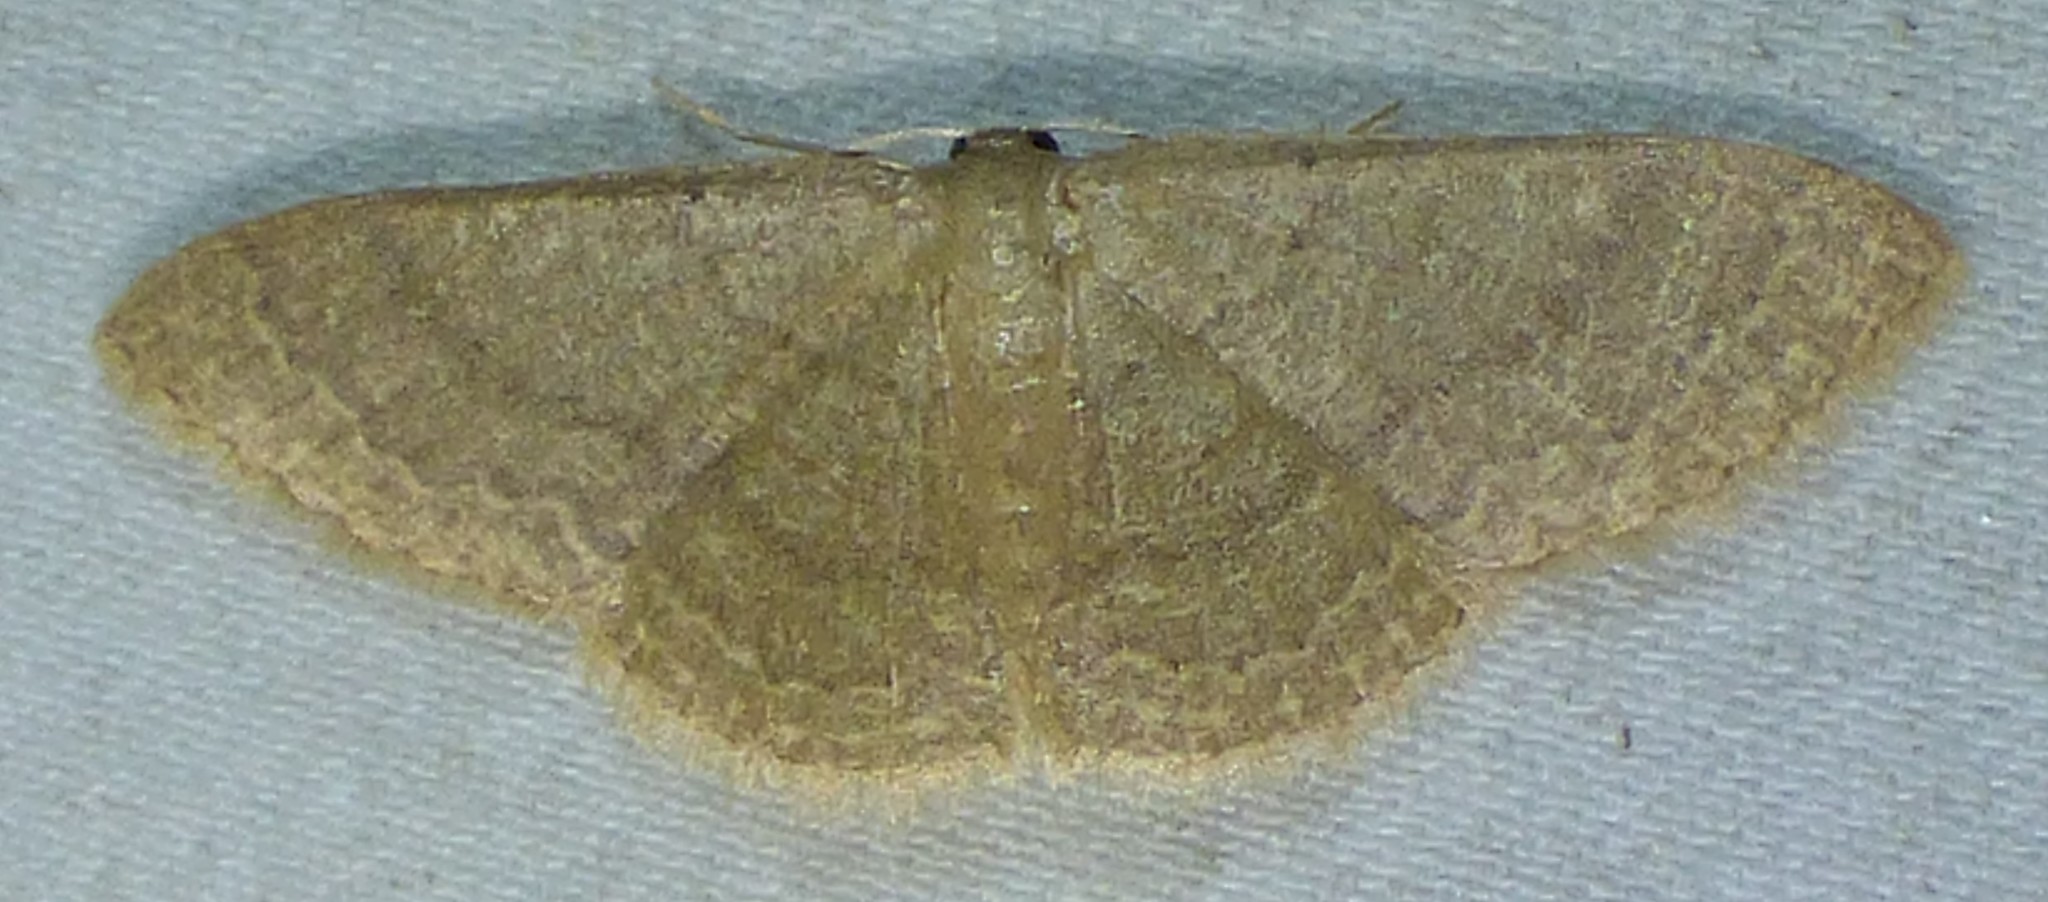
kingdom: Animalia
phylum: Arthropoda
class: Insecta
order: Lepidoptera
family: Geometridae
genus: Pleuroprucha
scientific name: Pleuroprucha insulsaria
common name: Common tan wave
